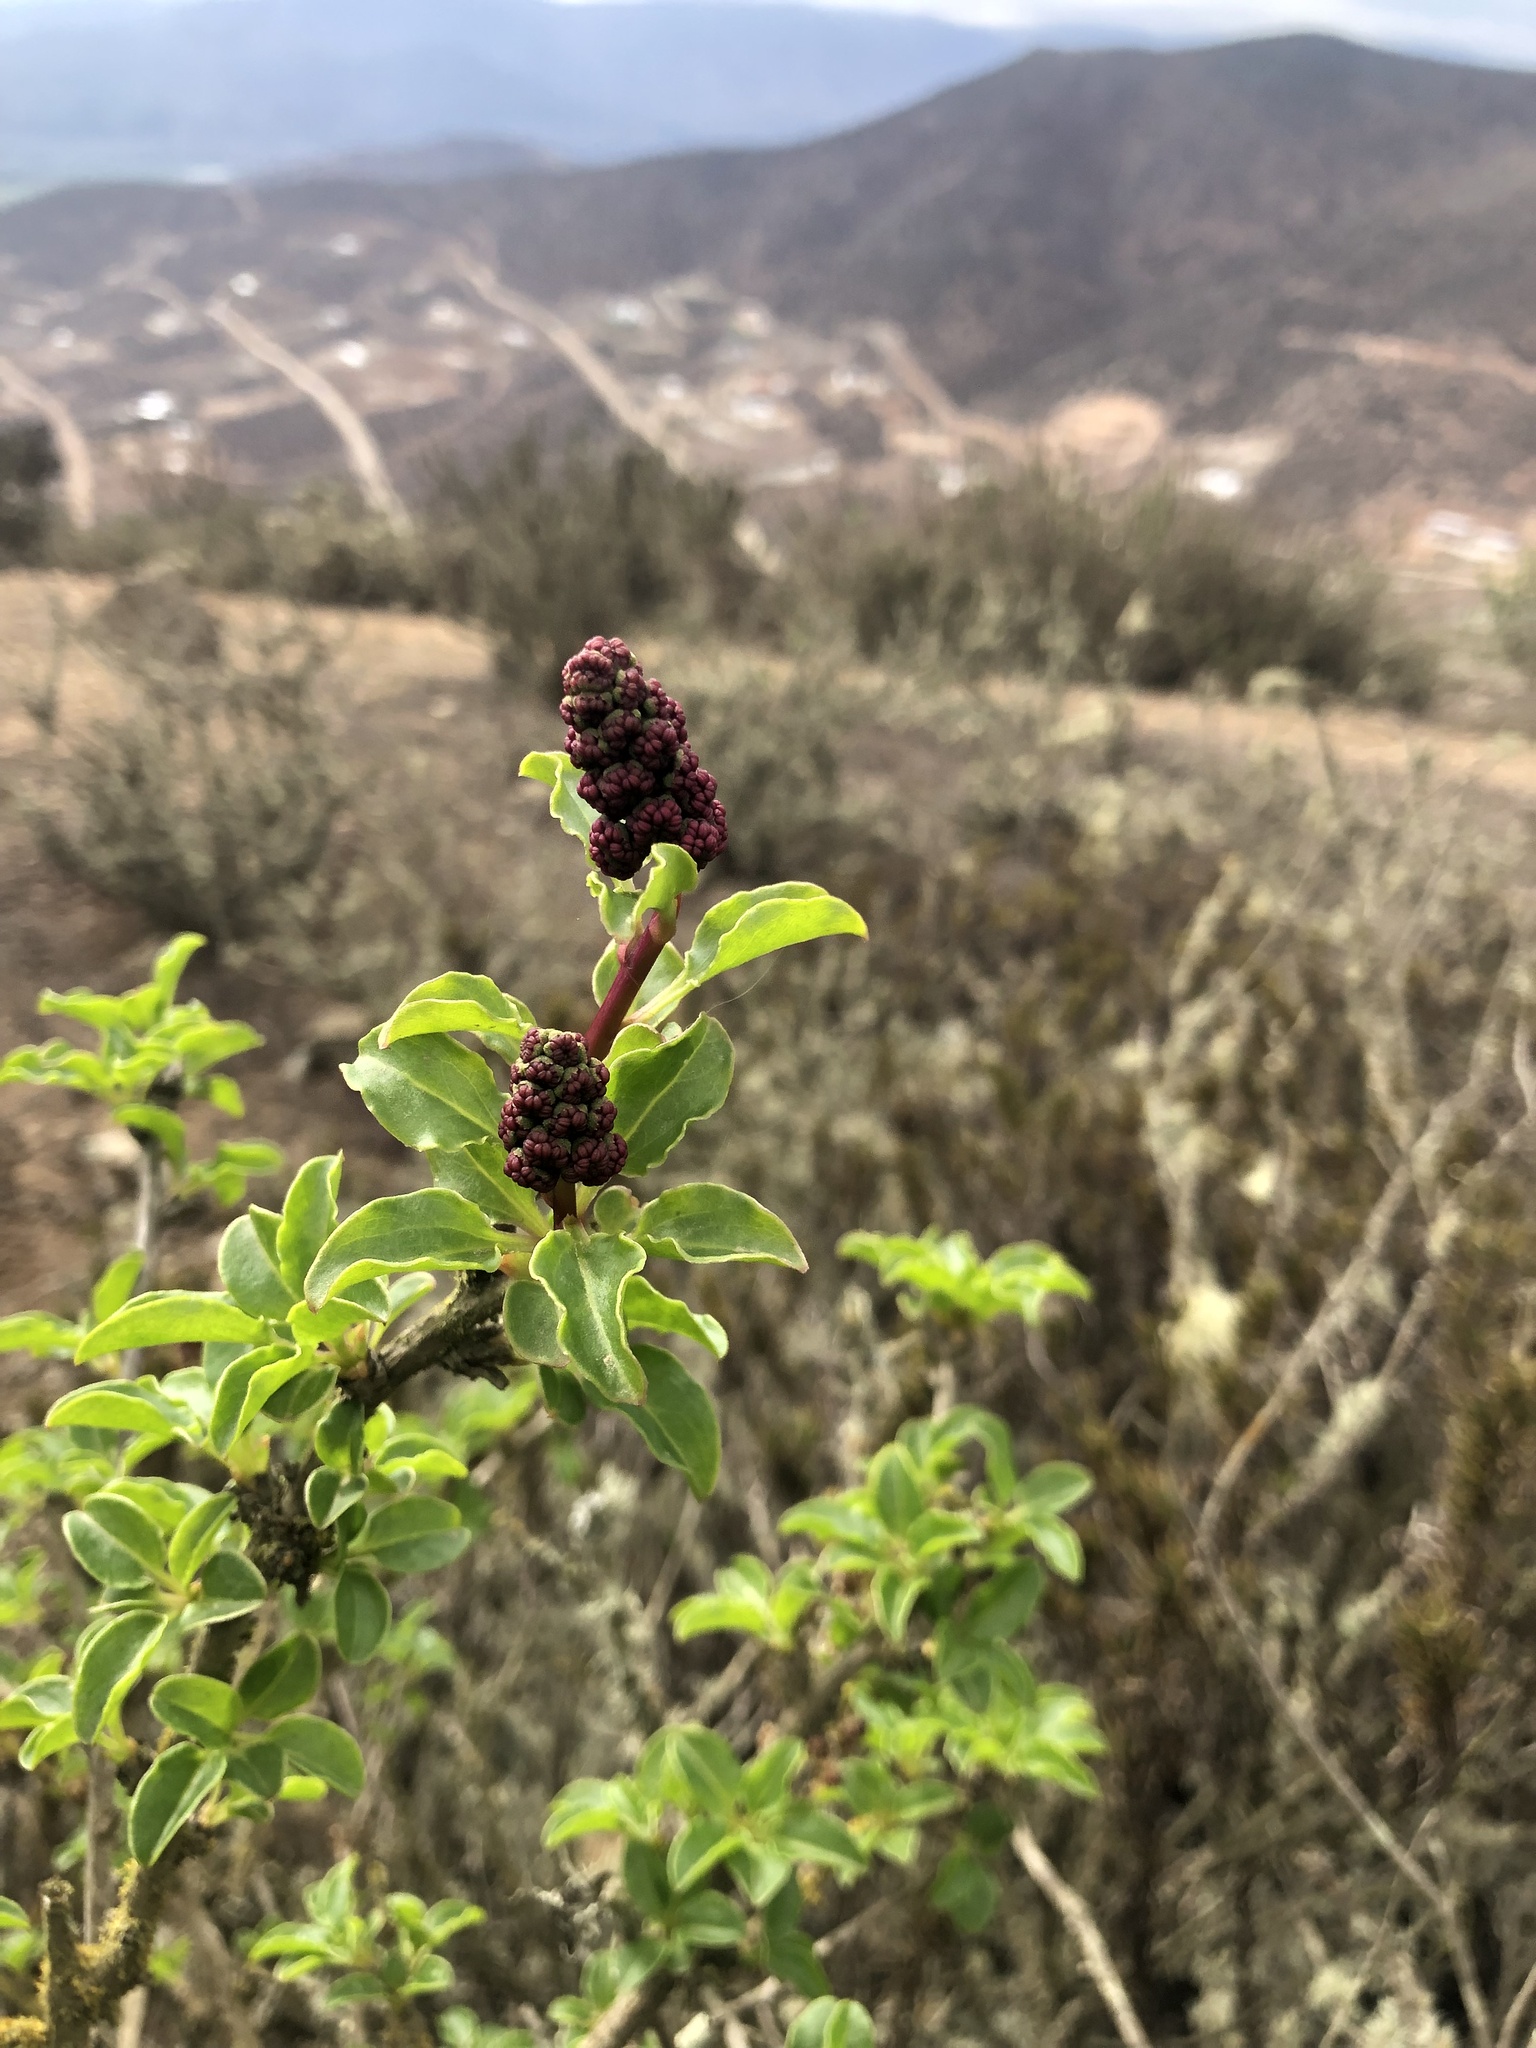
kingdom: Plantae
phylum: Tracheophyta
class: Magnoliopsida
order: Caryophyllales
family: Phytolaccaceae
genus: Anisomeria
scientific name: Anisomeria littoralis
